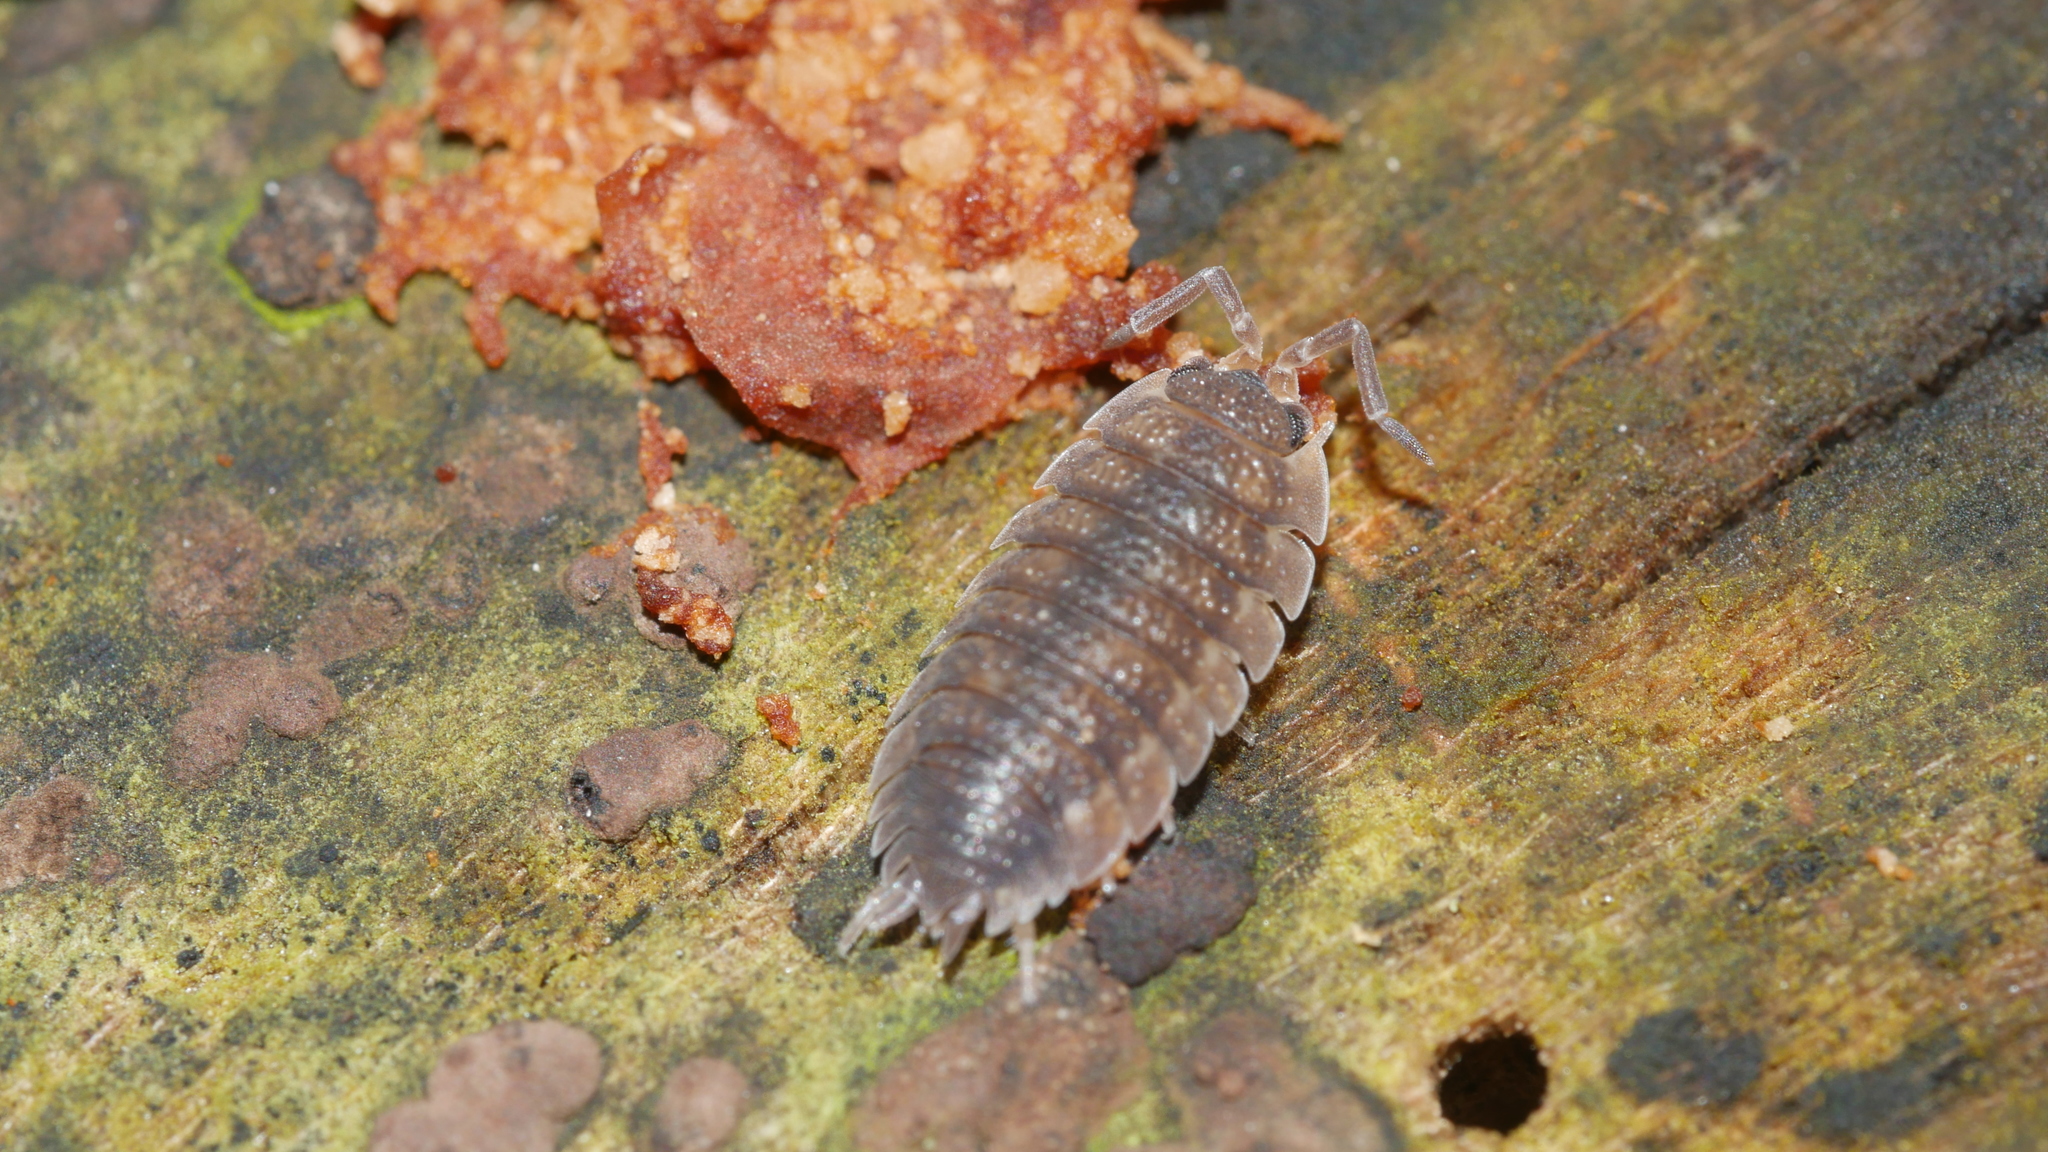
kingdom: Animalia
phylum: Arthropoda
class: Malacostraca
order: Isopoda
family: Porcellionidae
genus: Porcellio
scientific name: Porcellio scaber
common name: Common rough woodlouse
